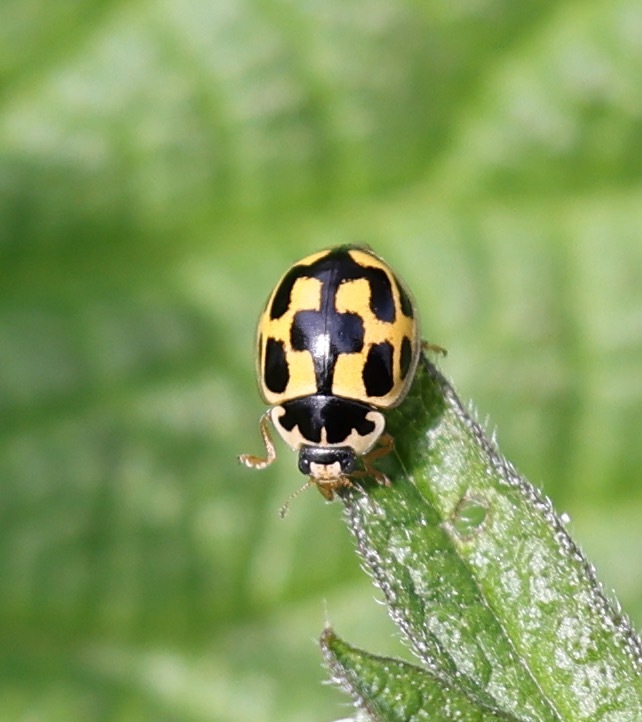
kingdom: Animalia
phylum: Arthropoda
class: Insecta
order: Coleoptera
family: Coccinellidae
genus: Propylaea
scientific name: Propylaea quatuordecimpunctata
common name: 14-spotted ladybird beetle
